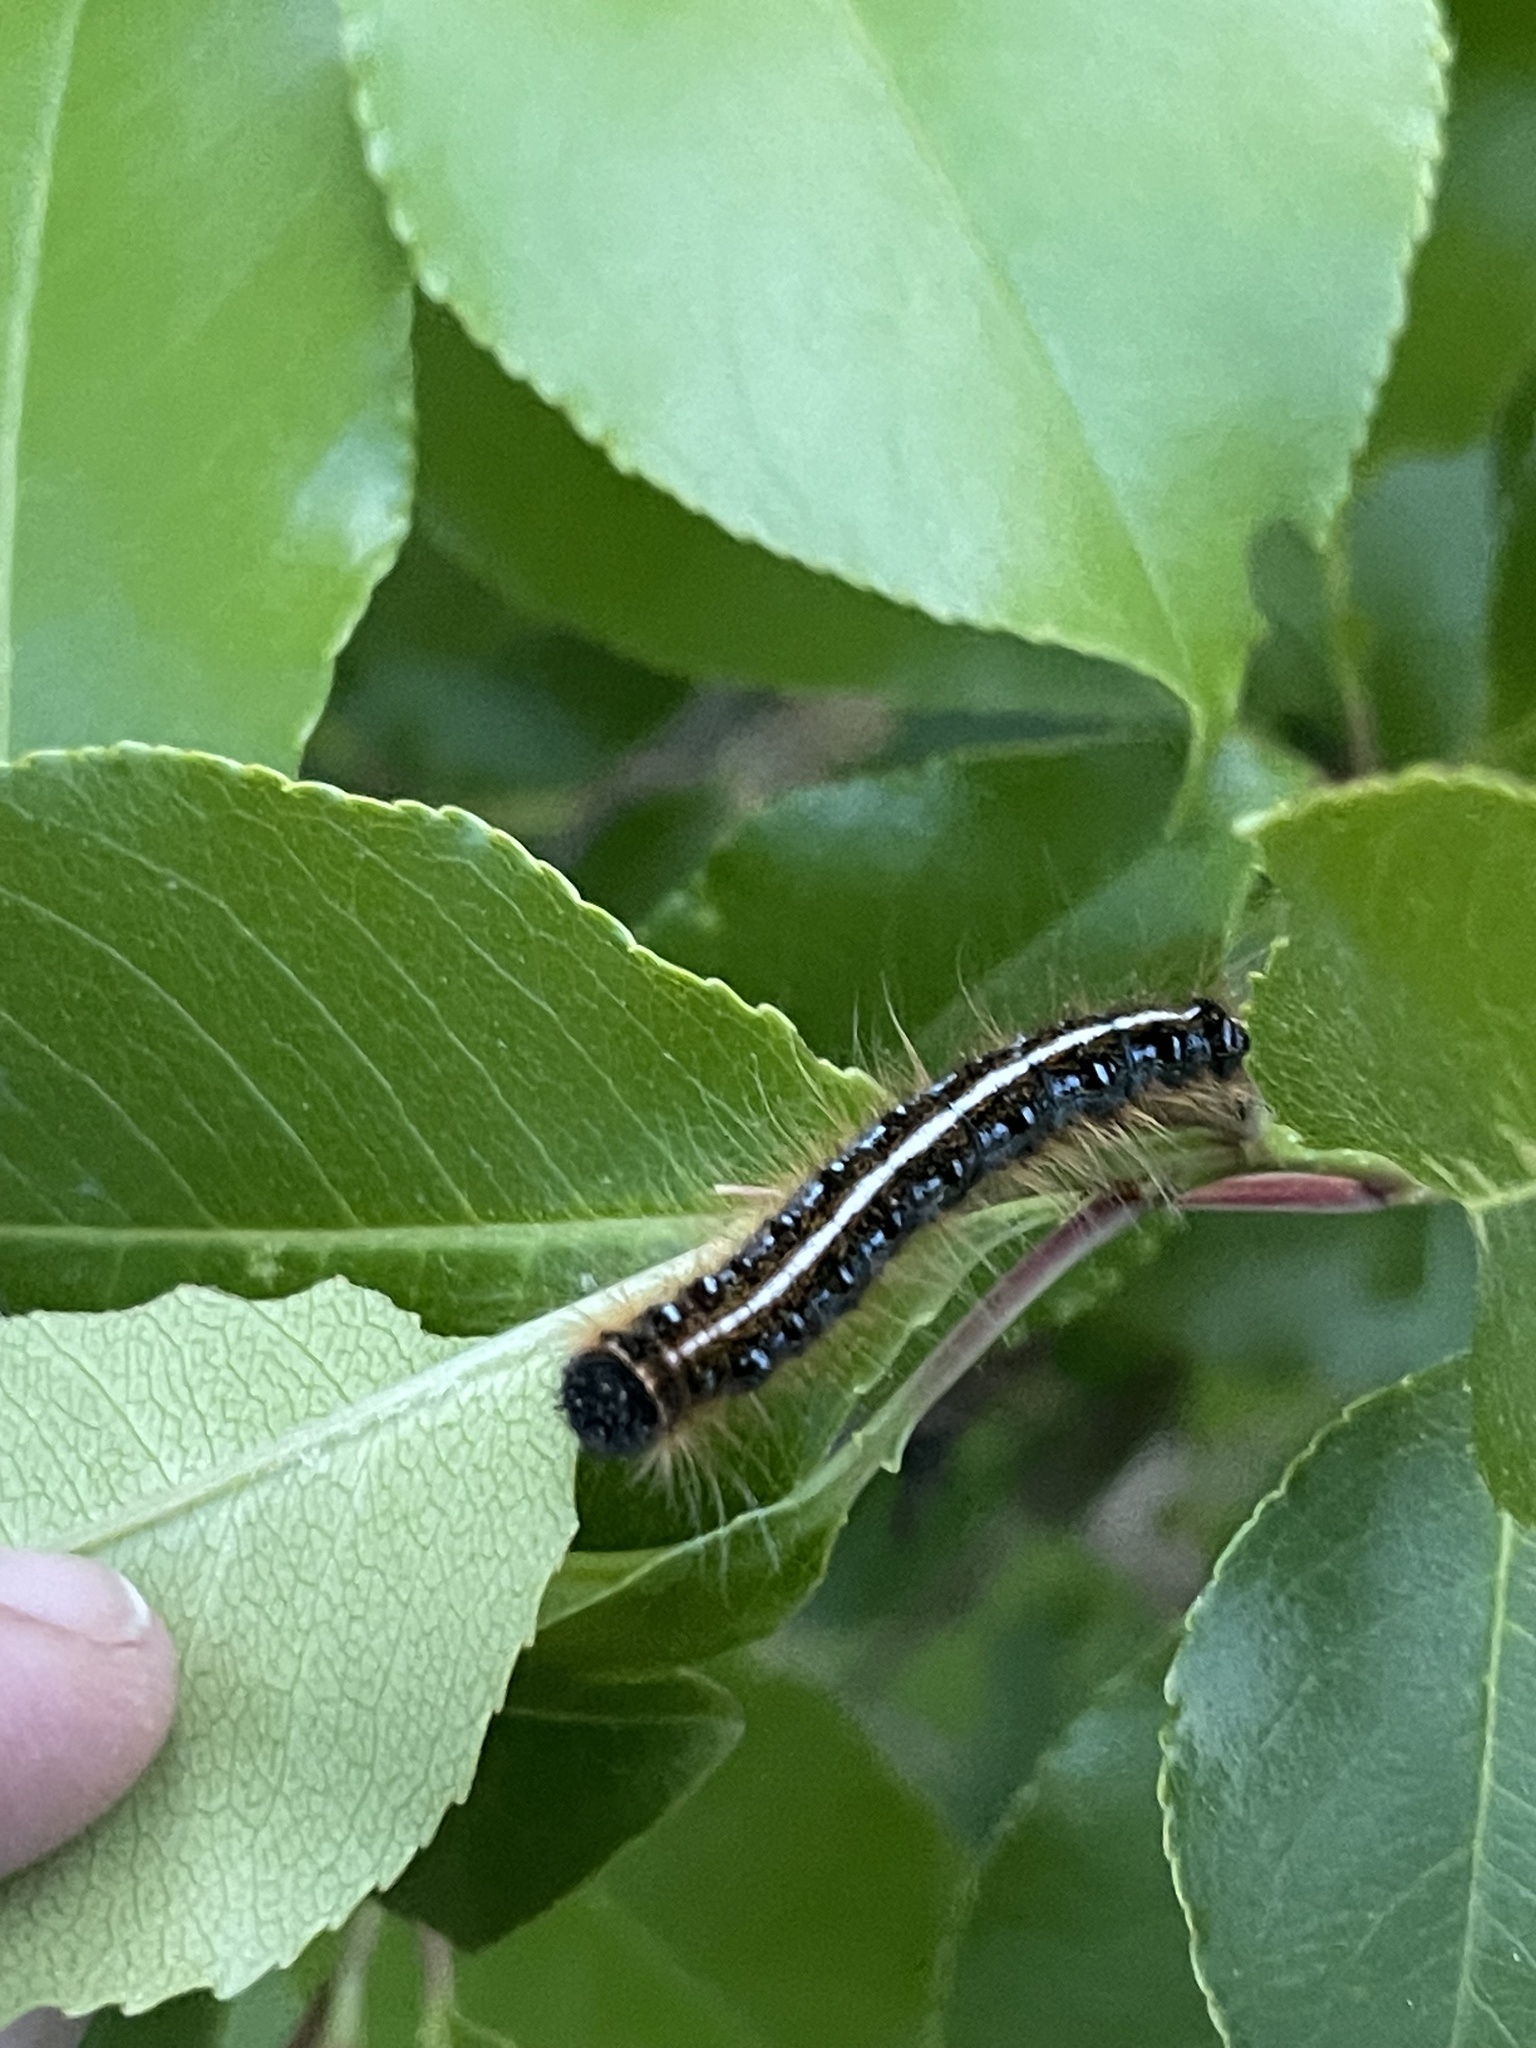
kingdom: Animalia
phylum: Arthropoda
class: Insecta
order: Lepidoptera
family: Lasiocampidae
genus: Malacosoma
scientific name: Malacosoma americana
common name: Eastern tent caterpillar moth
